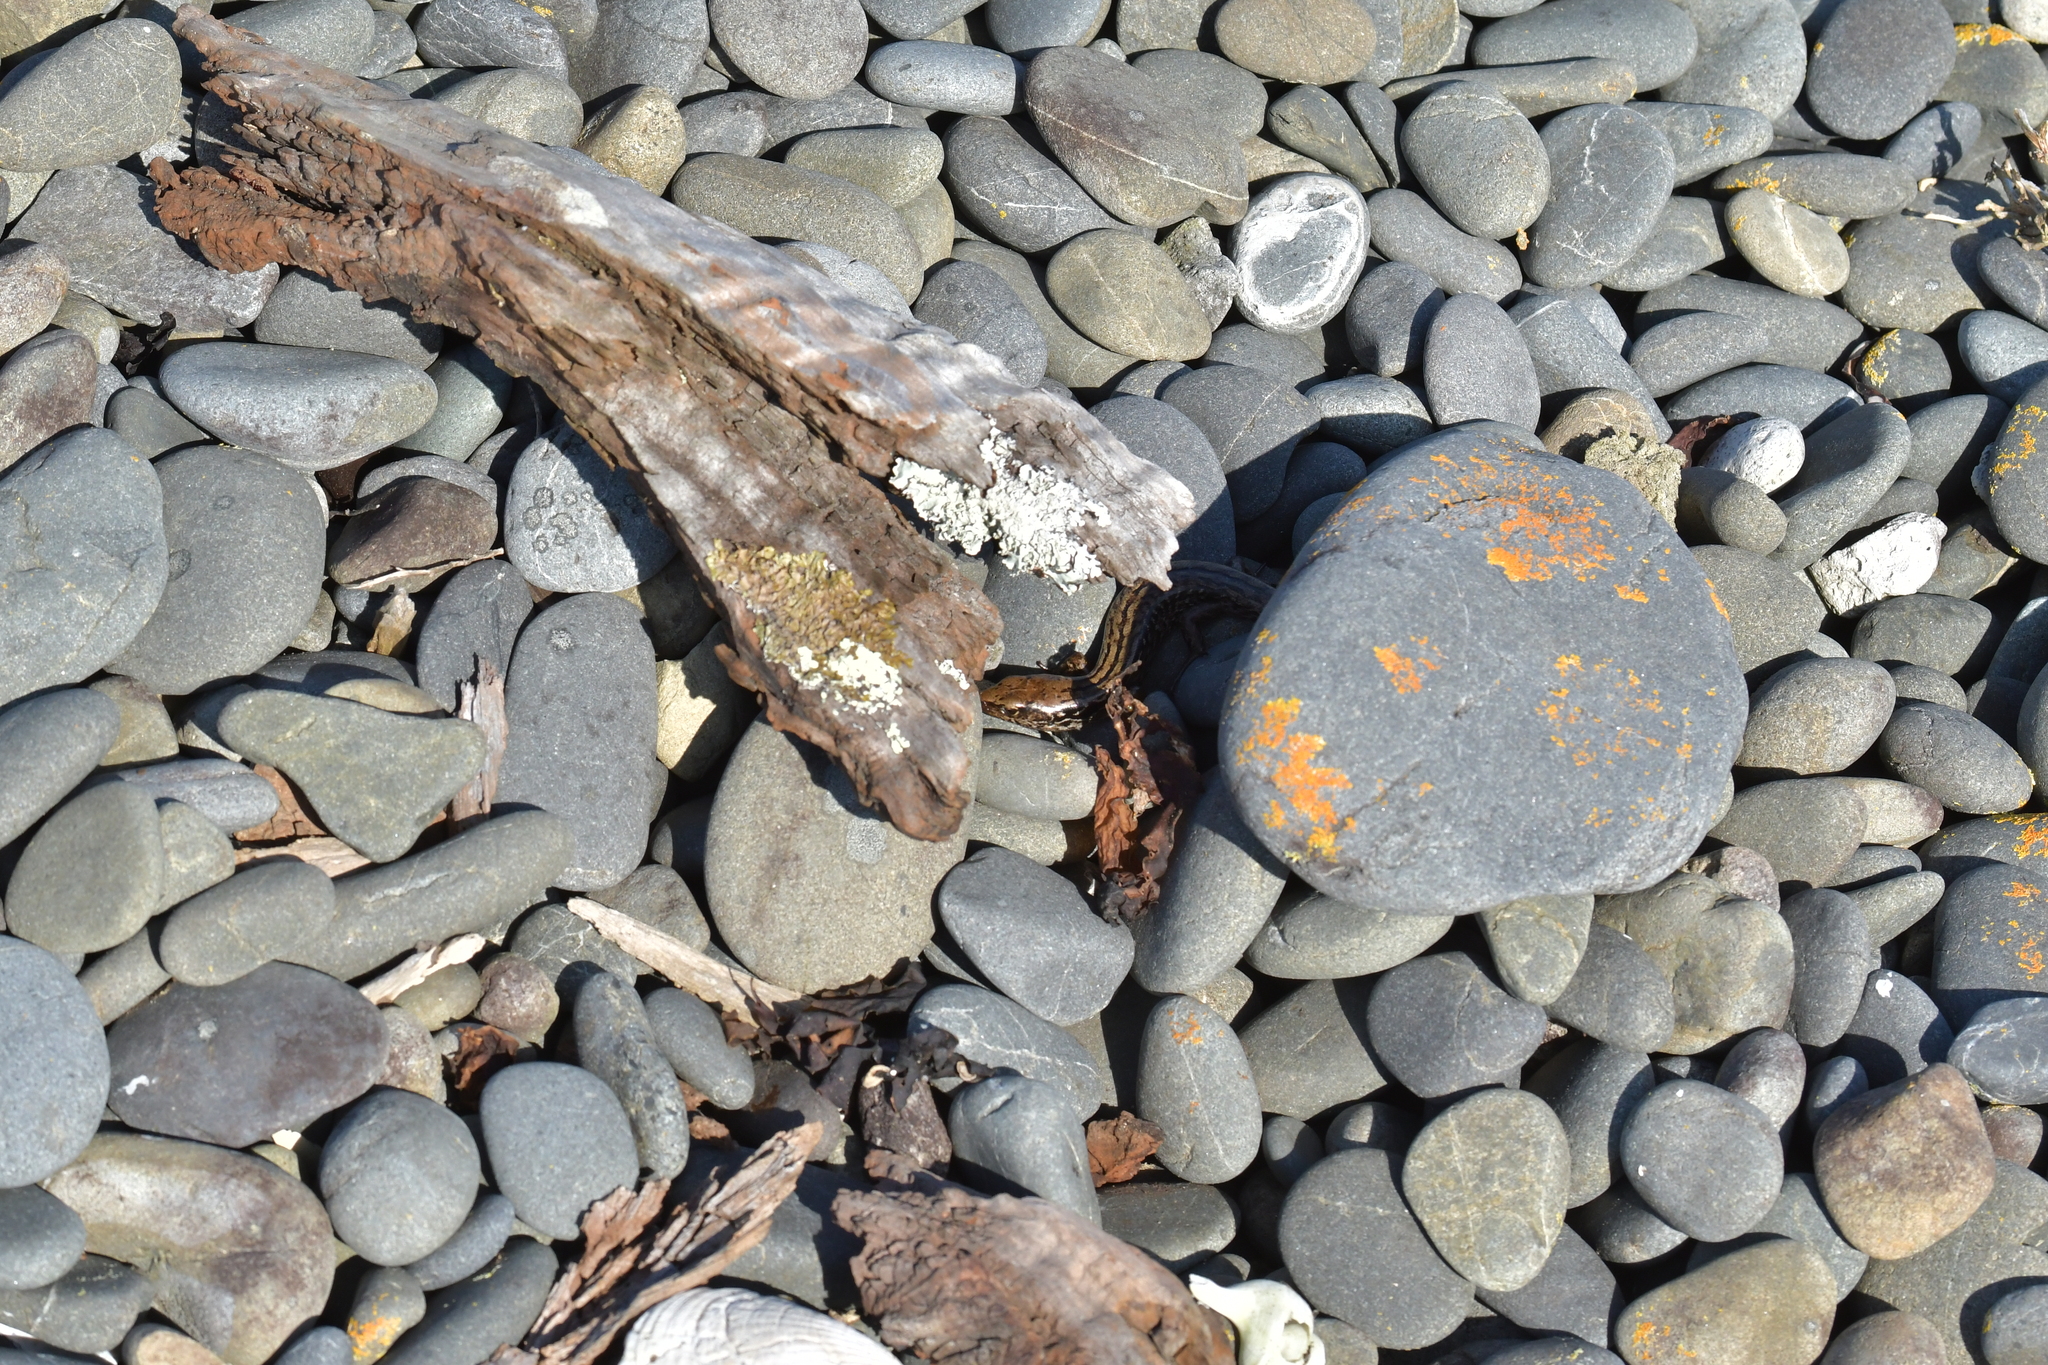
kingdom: Animalia
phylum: Chordata
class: Squamata
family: Scincidae
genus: Oligosoma
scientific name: Oligosoma macgregori
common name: Macgregor's skink
